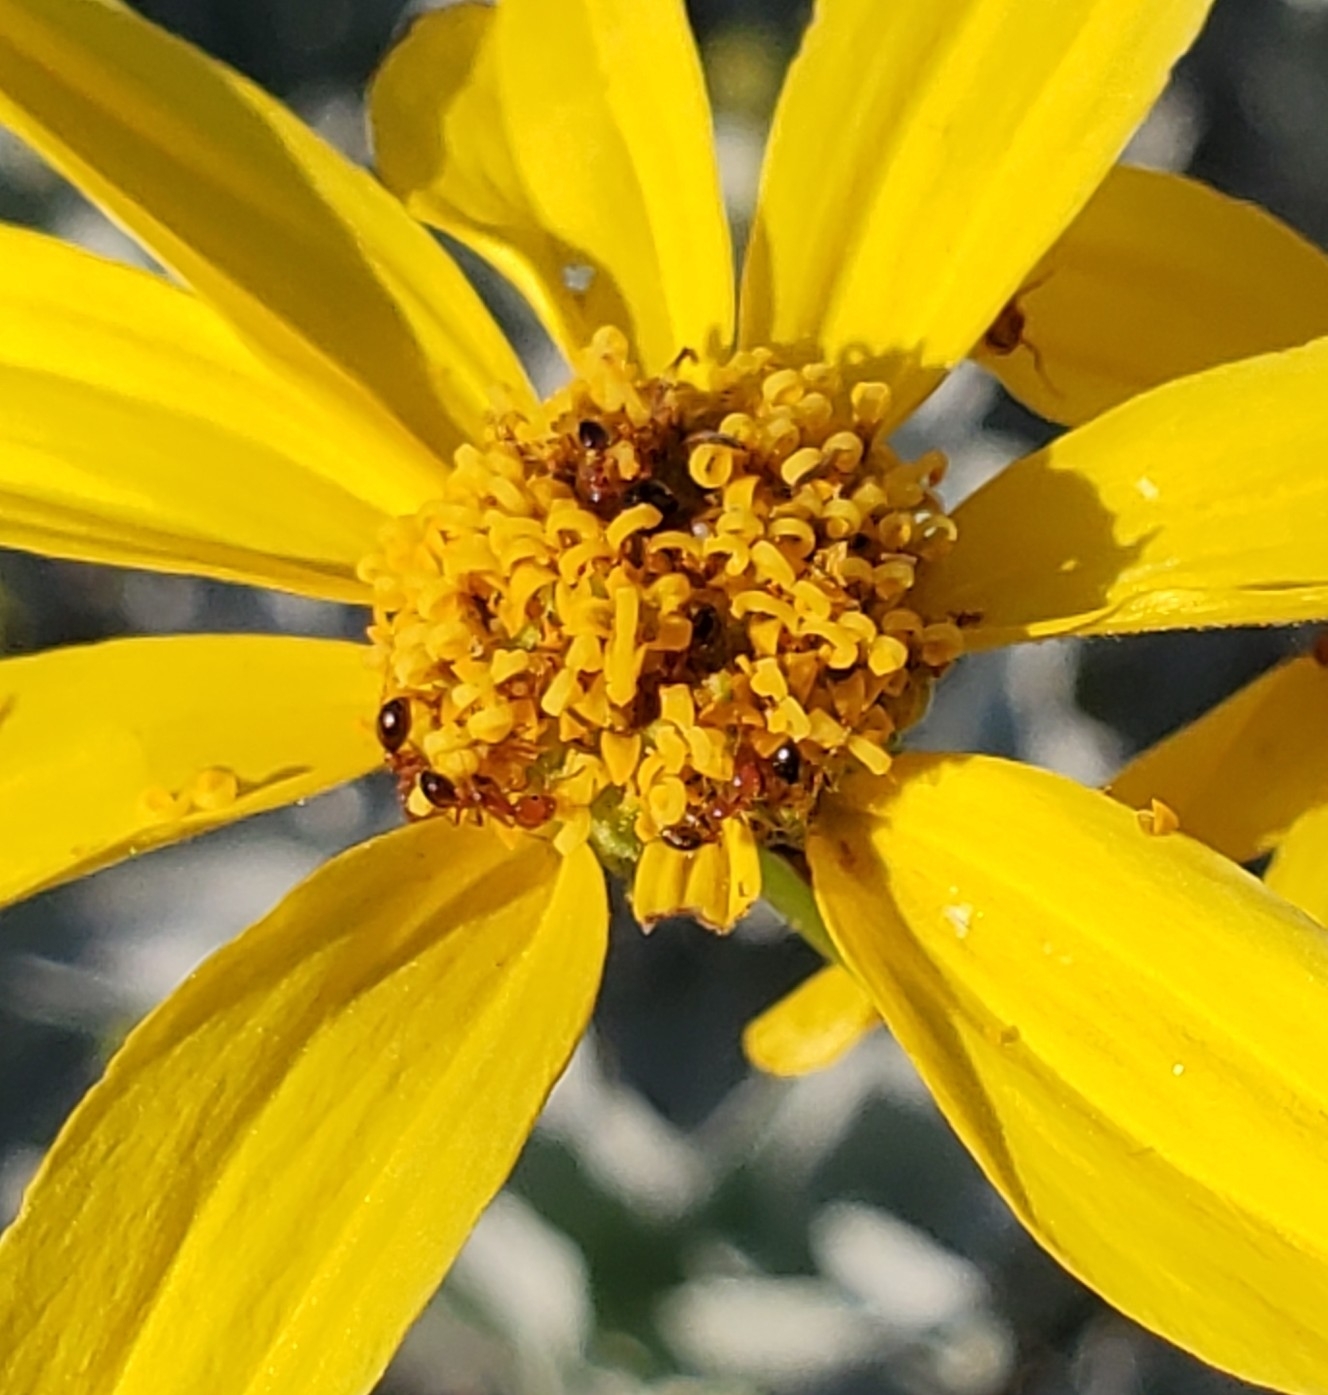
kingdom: Animalia
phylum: Arthropoda
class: Insecta
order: Hymenoptera
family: Formicidae
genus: Solenopsis
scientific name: Solenopsis xyloni
